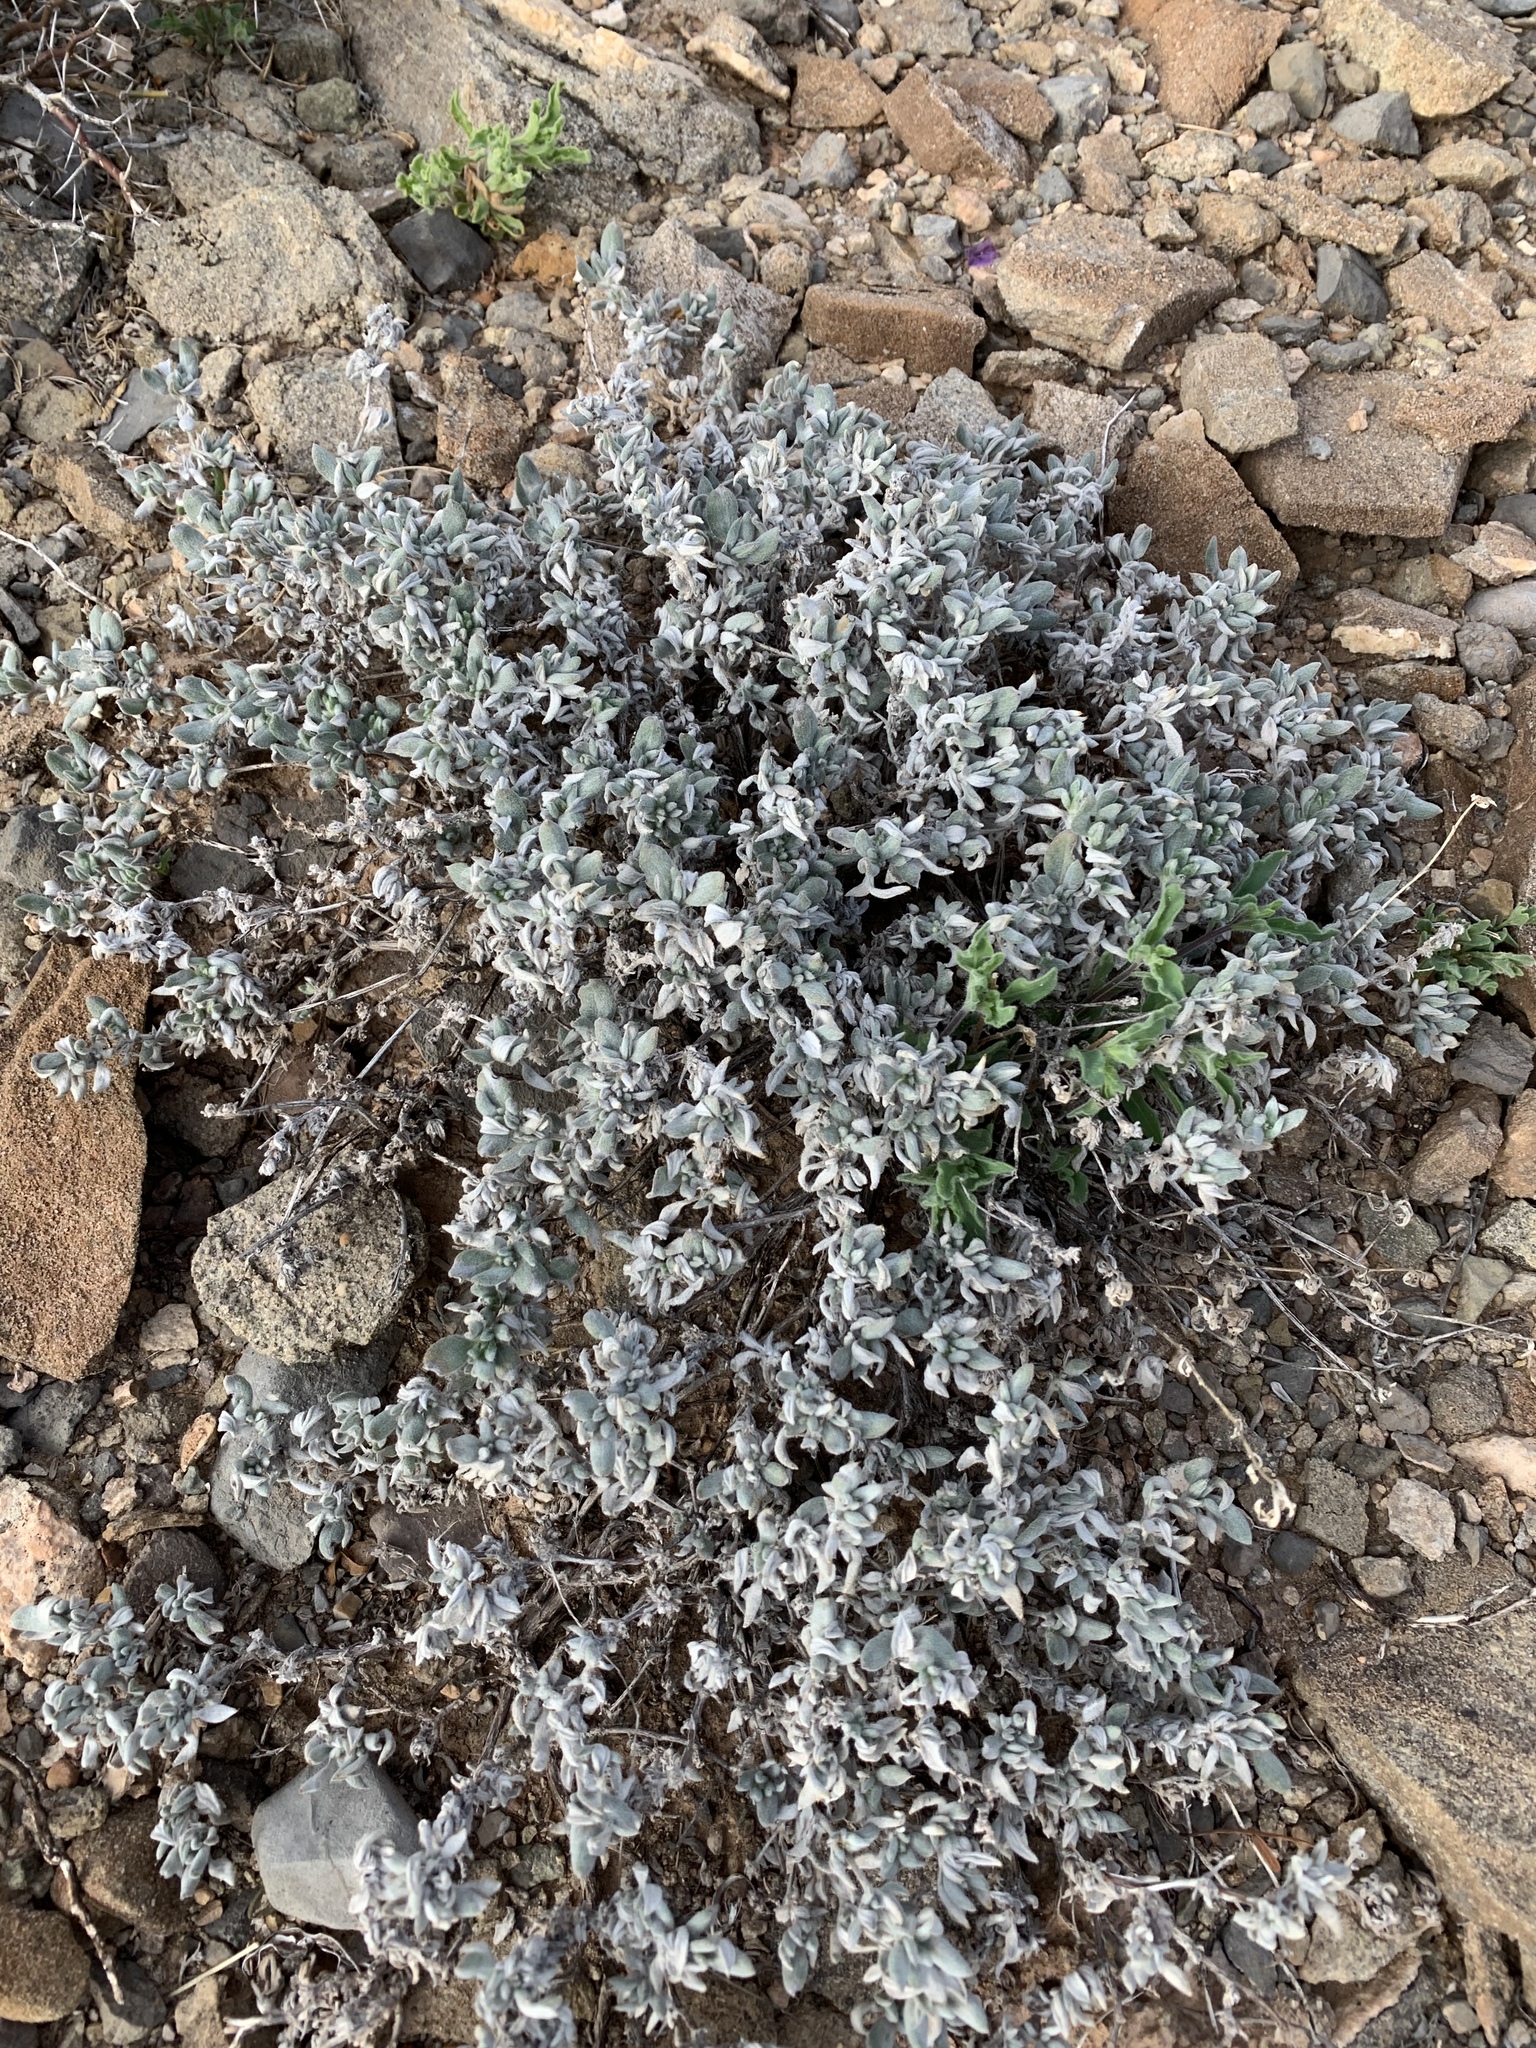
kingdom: Plantae
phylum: Tracheophyta
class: Magnoliopsida
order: Boraginales
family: Ehretiaceae
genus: Tiquilia
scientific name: Tiquilia canescens
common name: Hairy tiquilia
